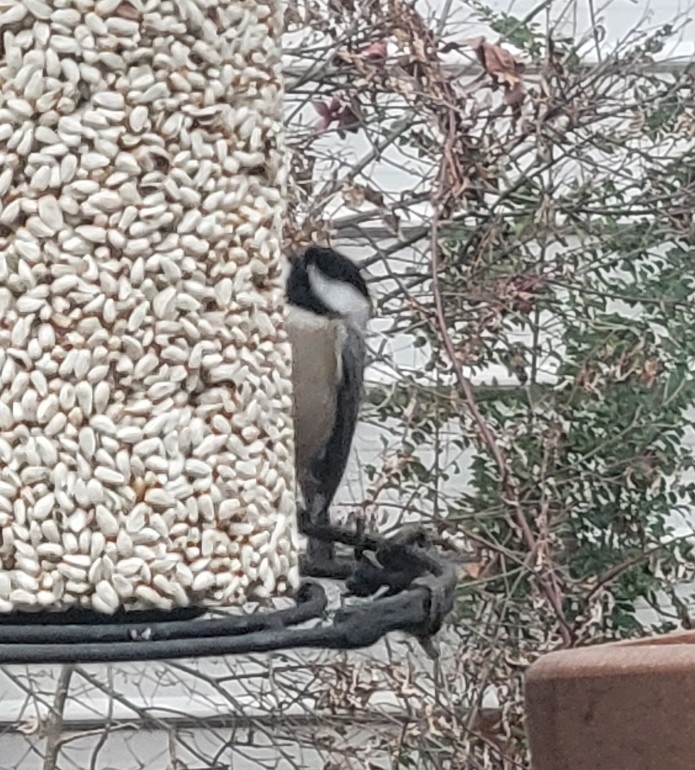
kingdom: Animalia
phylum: Chordata
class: Aves
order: Passeriformes
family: Paridae
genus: Poecile
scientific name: Poecile carolinensis
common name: Carolina chickadee
